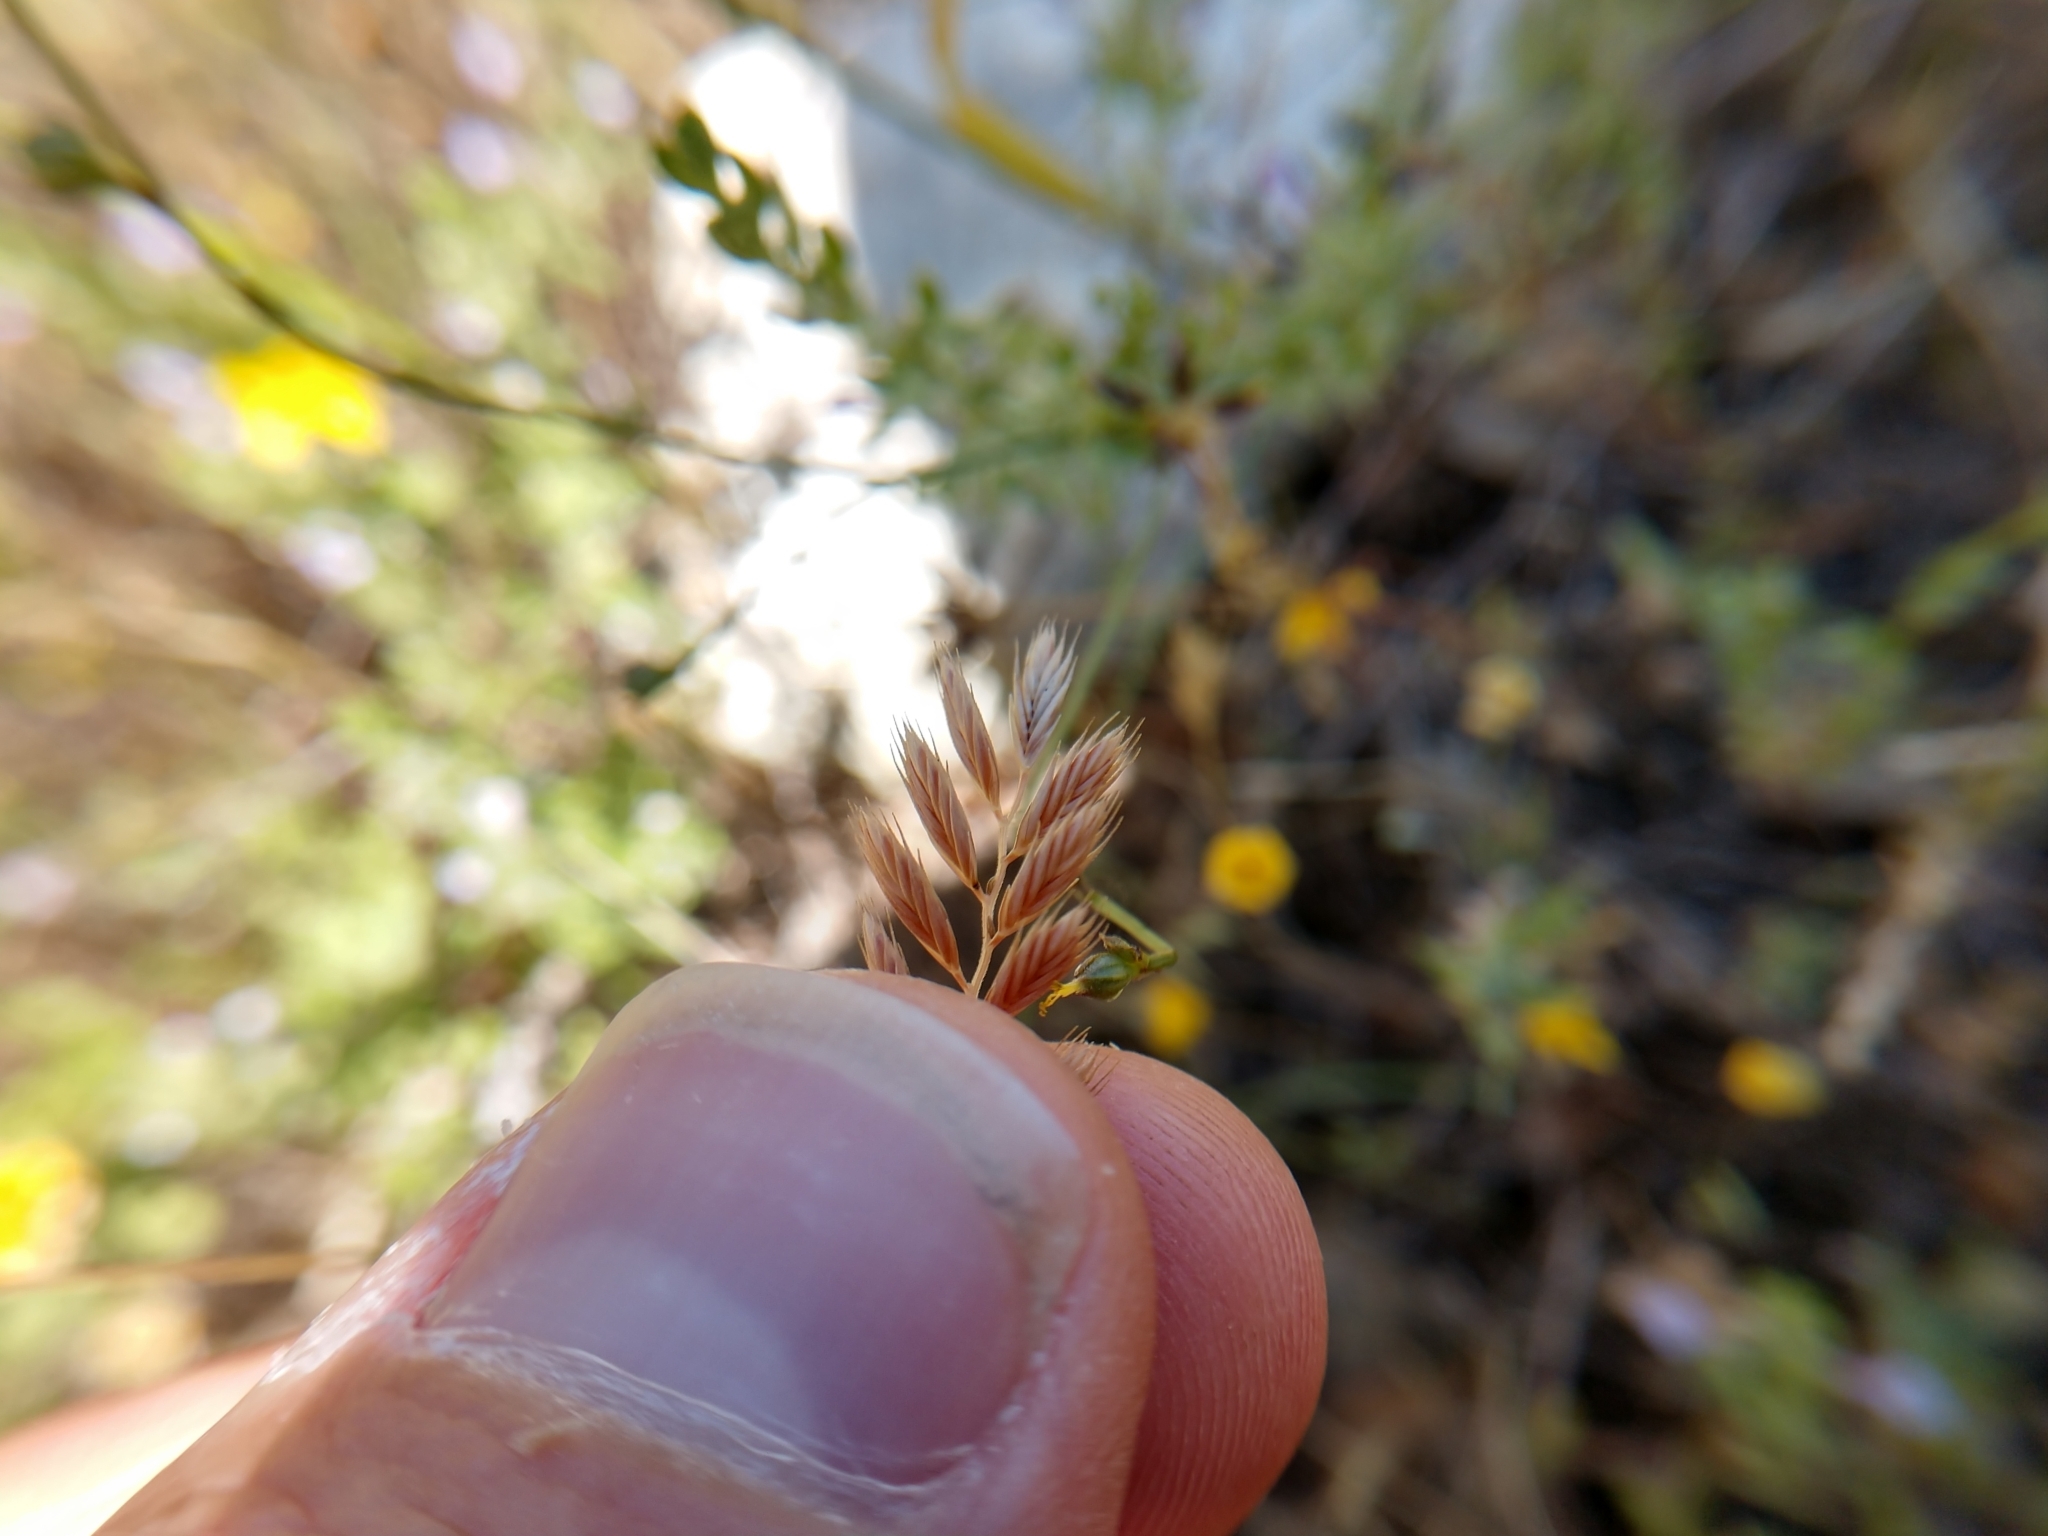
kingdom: Plantae
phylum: Tracheophyta
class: Liliopsida
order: Poales
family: Poaceae
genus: Festuca
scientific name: Festuca octoflora
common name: Sixweeks grass
